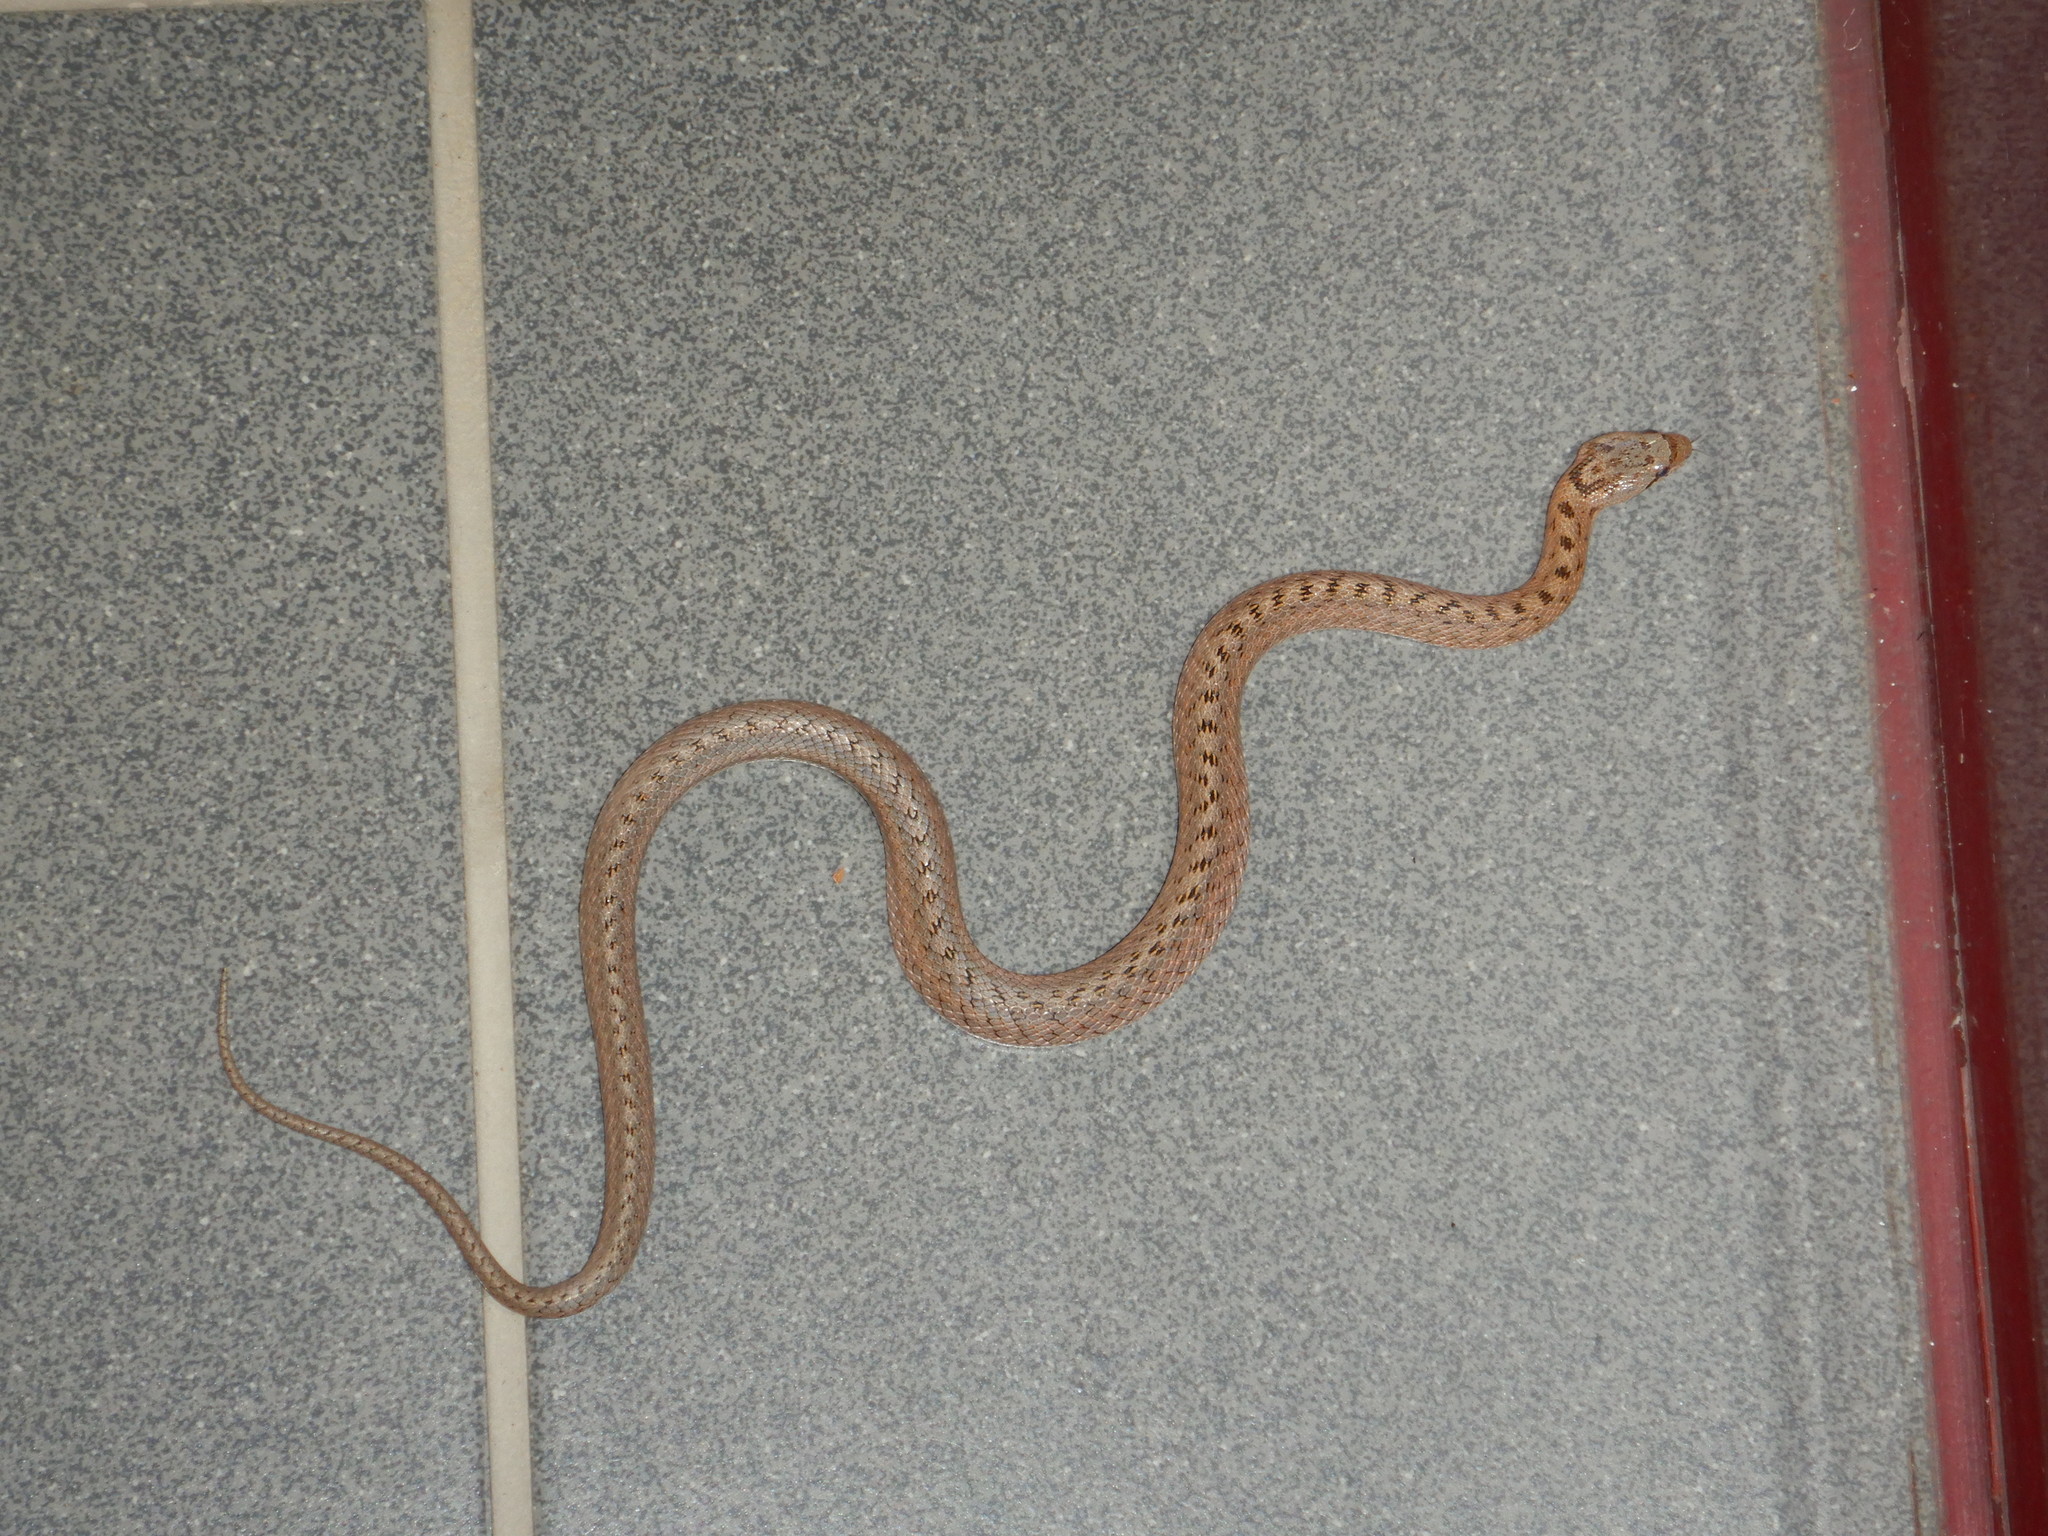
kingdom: Animalia
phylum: Chordata
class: Squamata
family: Colubridae
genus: Coronella
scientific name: Coronella girondica
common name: Southern smooth snake
